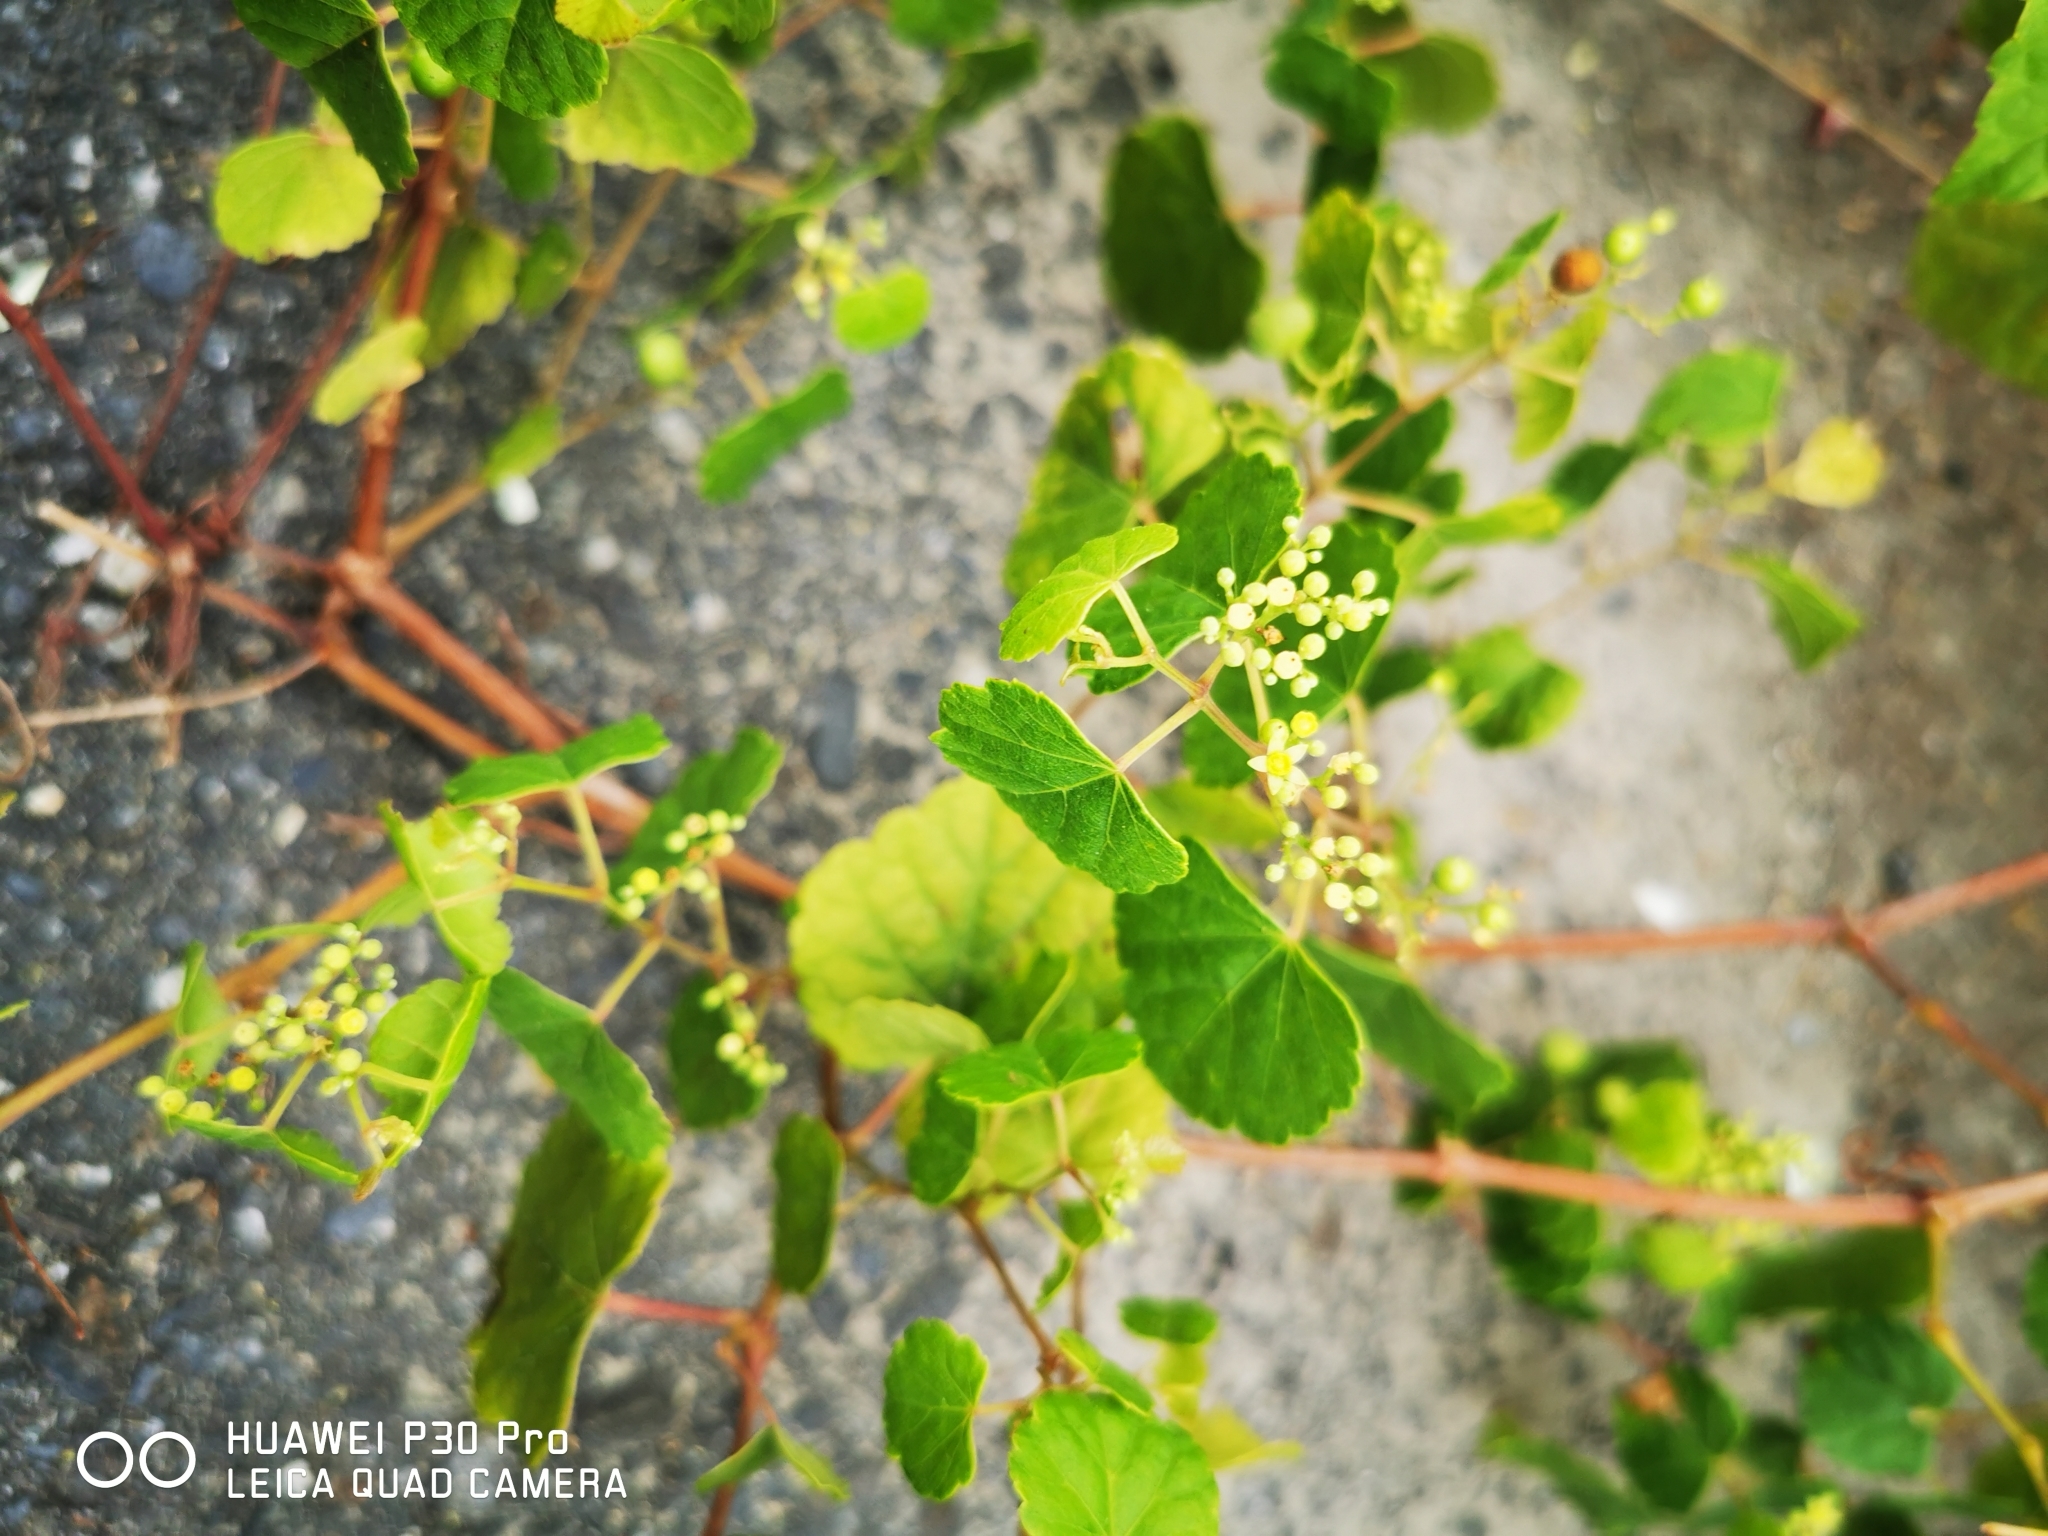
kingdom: Plantae
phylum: Tracheophyta
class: Magnoliopsida
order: Vitales
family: Vitaceae
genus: Ampelopsis
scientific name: Ampelopsis glandulosa
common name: Amur peppervine
